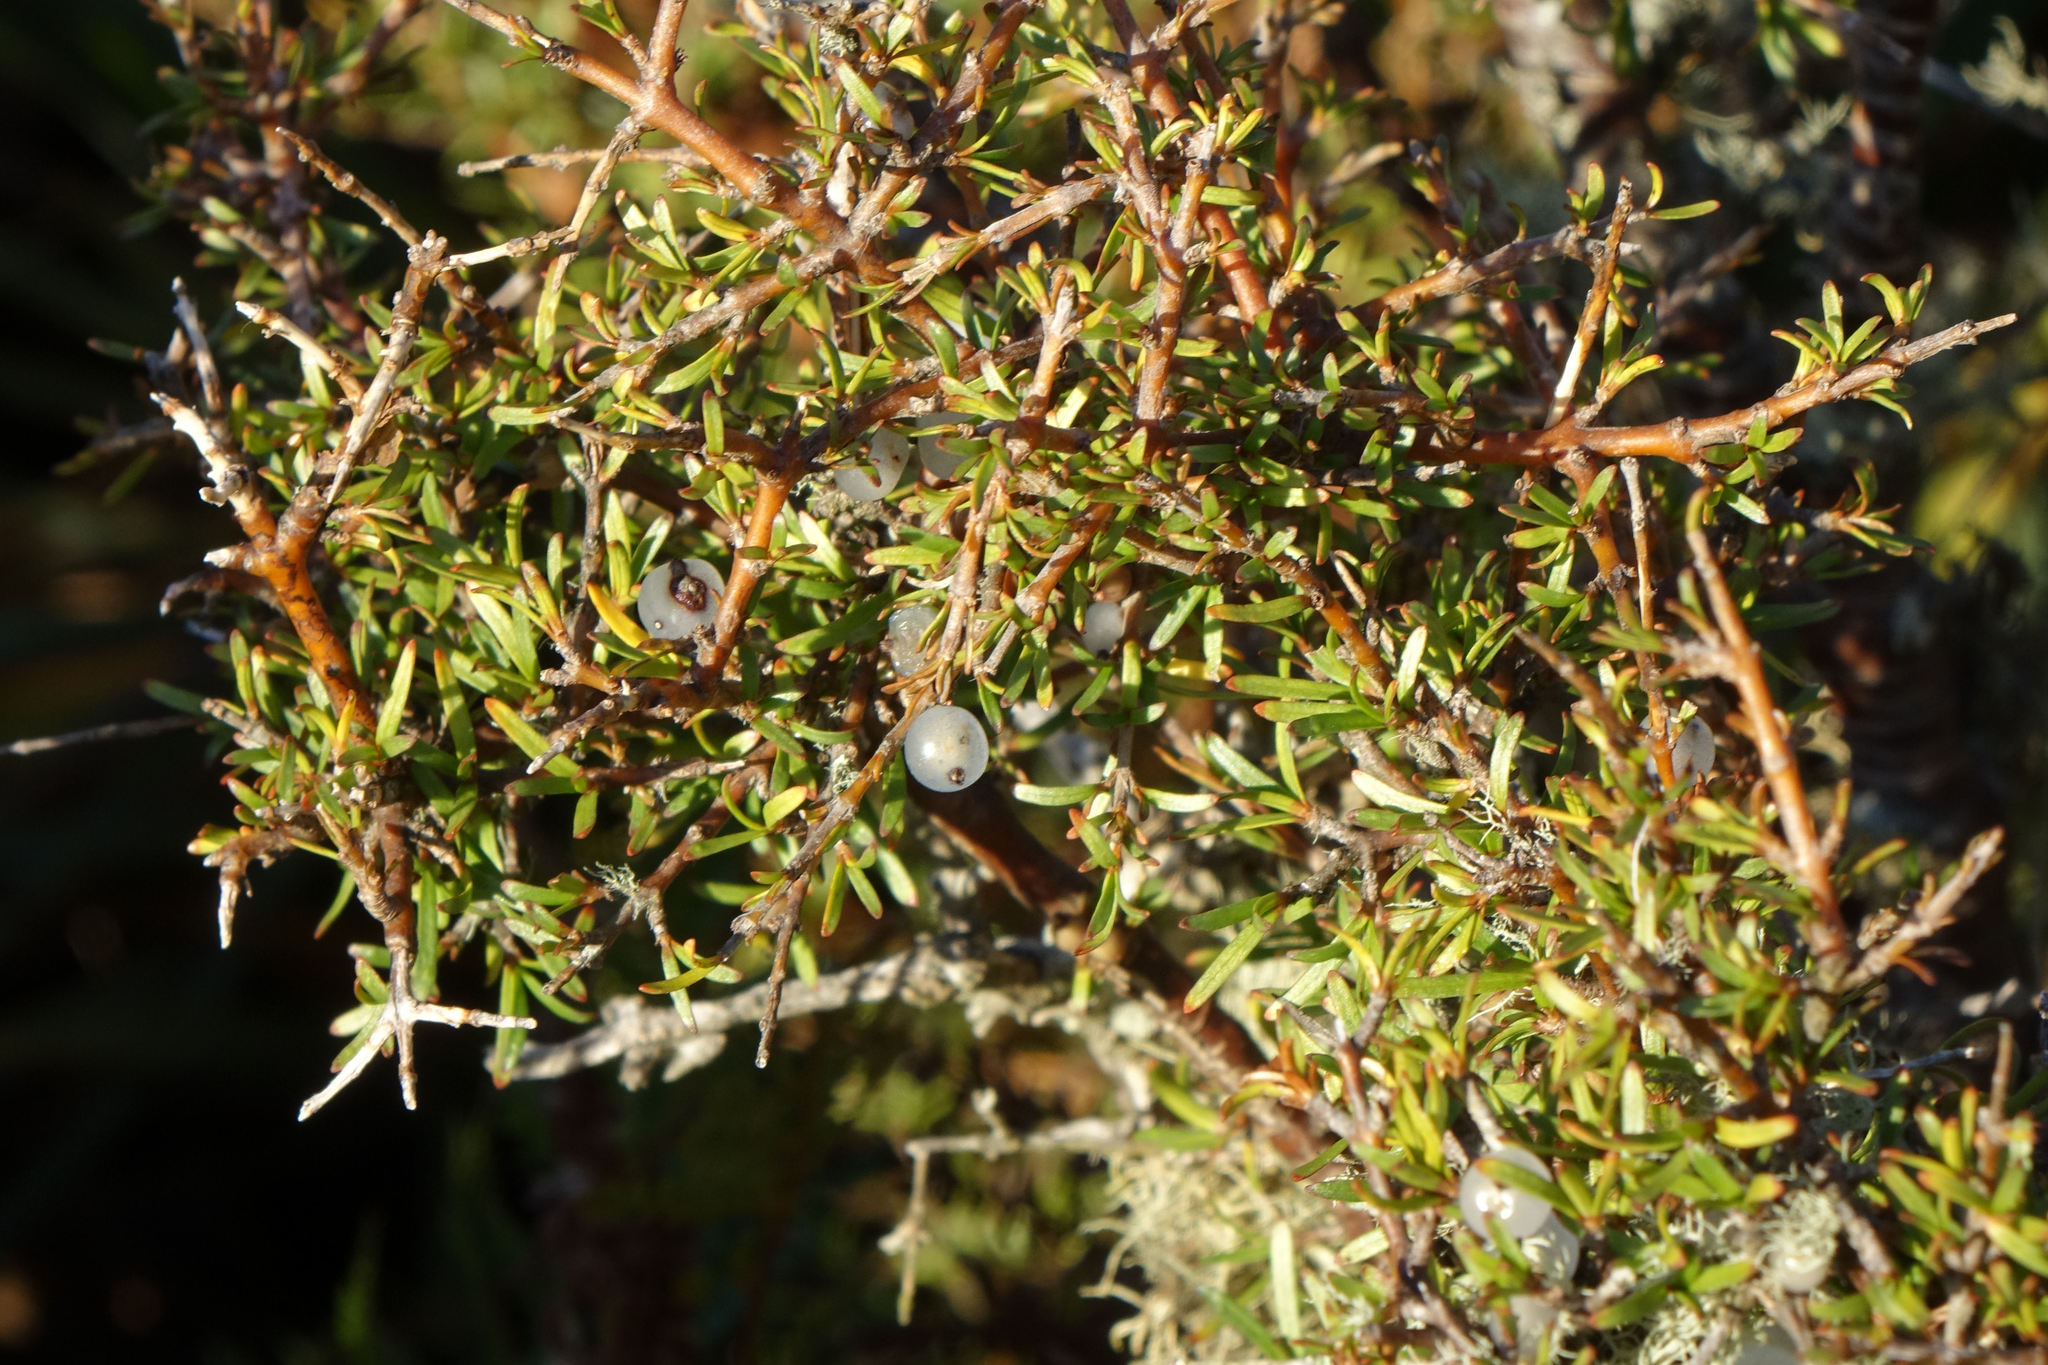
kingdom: Plantae
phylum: Tracheophyta
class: Magnoliopsida
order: Gentianales
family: Rubiaceae
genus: Coprosma
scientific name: Coprosma rugosa
